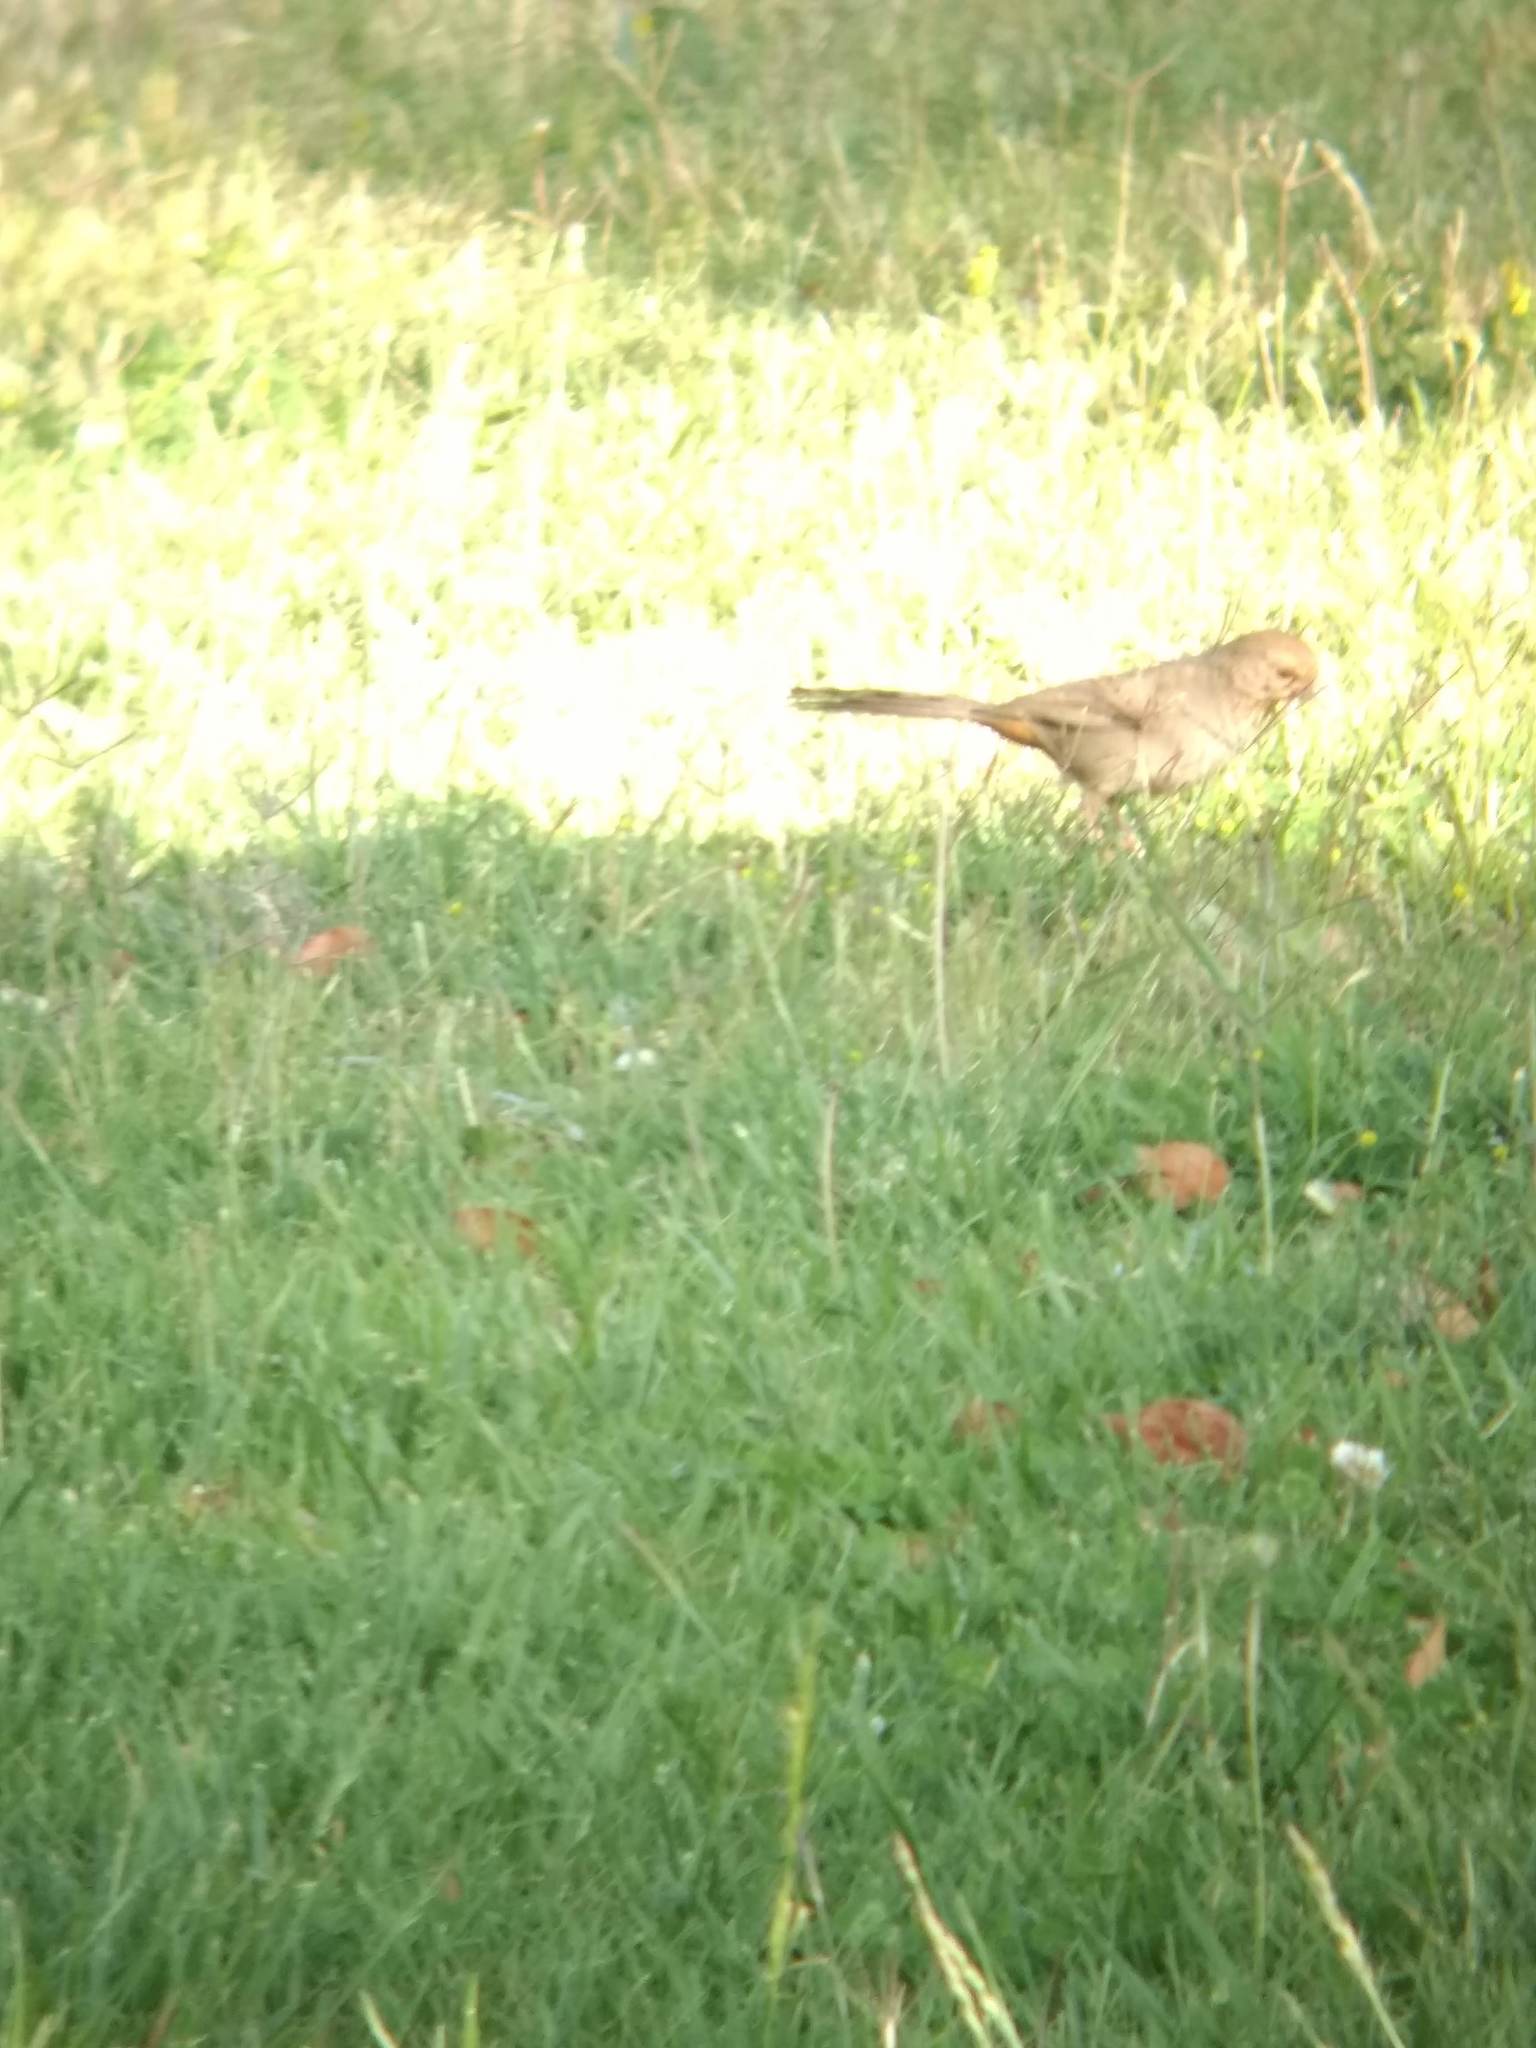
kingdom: Animalia
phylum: Chordata
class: Aves
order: Passeriformes
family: Passerellidae
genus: Melozone
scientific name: Melozone crissalis
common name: California towhee
